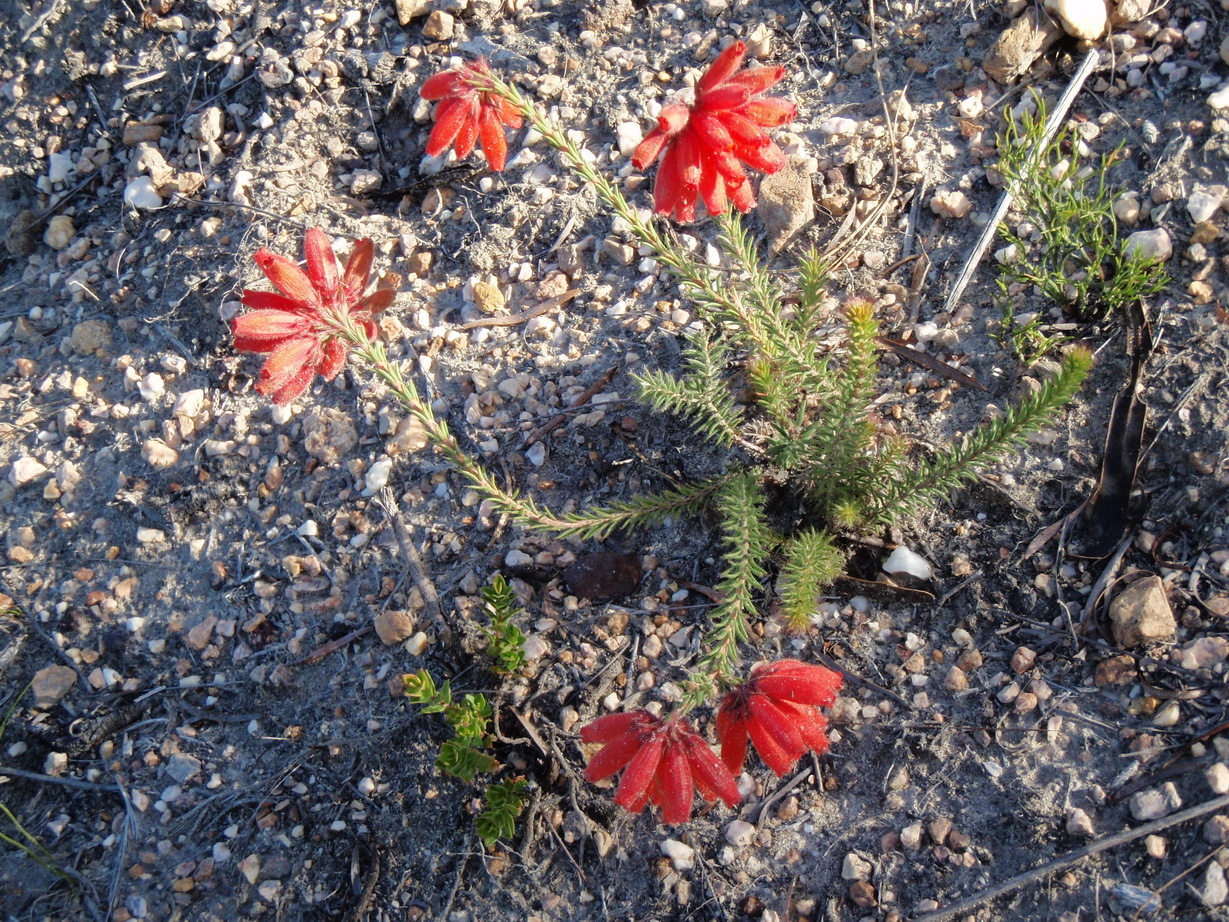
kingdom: Plantae
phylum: Tracheophyta
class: Magnoliopsida
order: Ericales
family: Ericaceae
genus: Erica
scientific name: Erica cerinthoides
